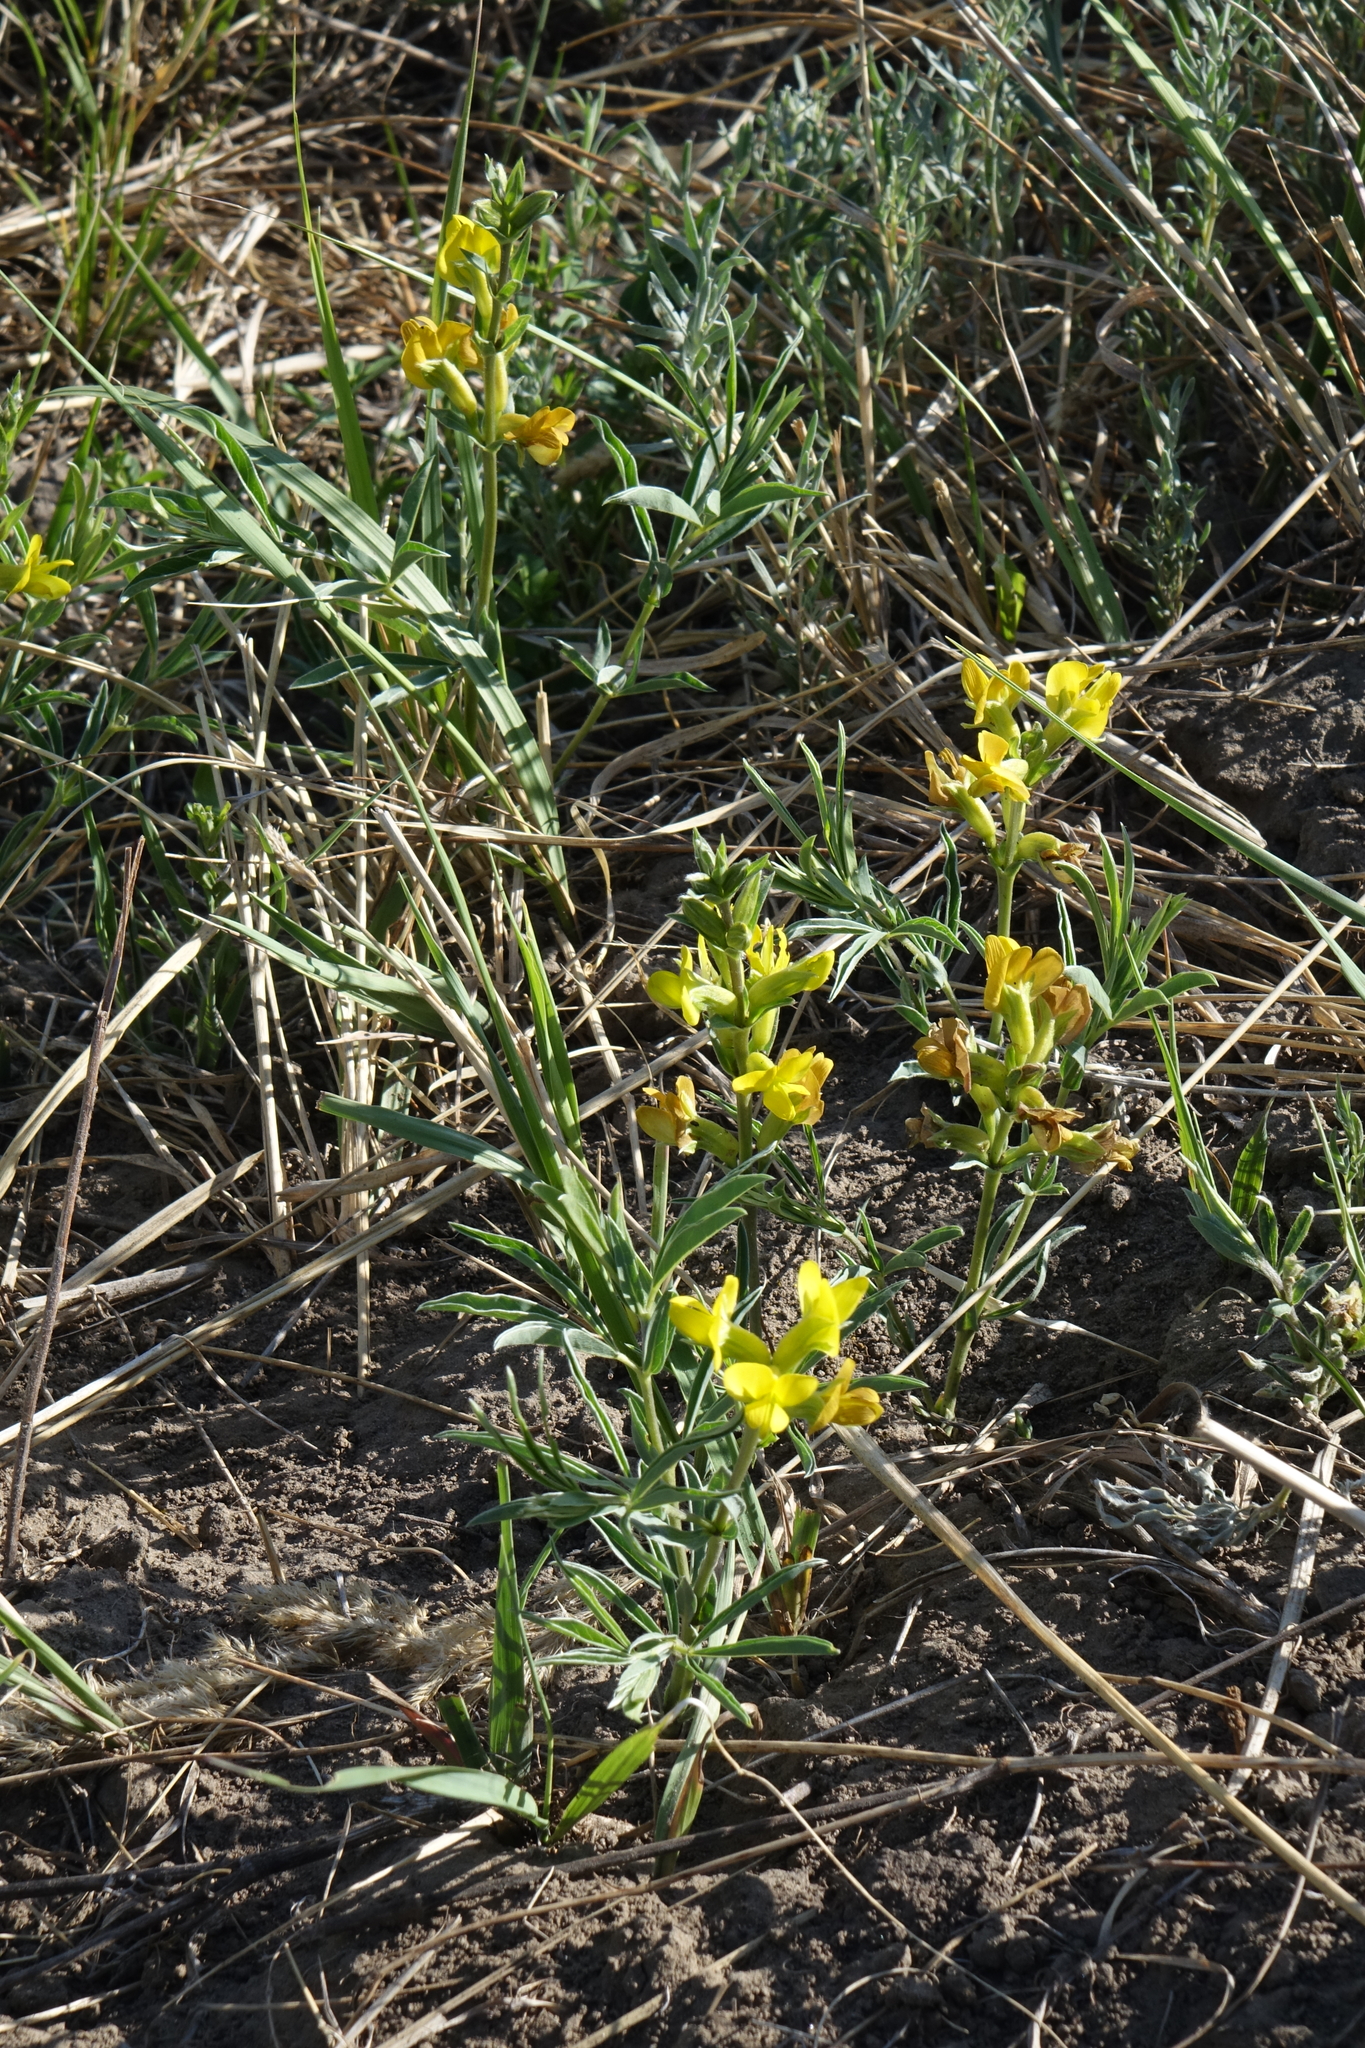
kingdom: Plantae
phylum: Tracheophyta
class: Magnoliopsida
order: Fabales
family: Fabaceae
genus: Thermopsis
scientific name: Thermopsis mongolica
